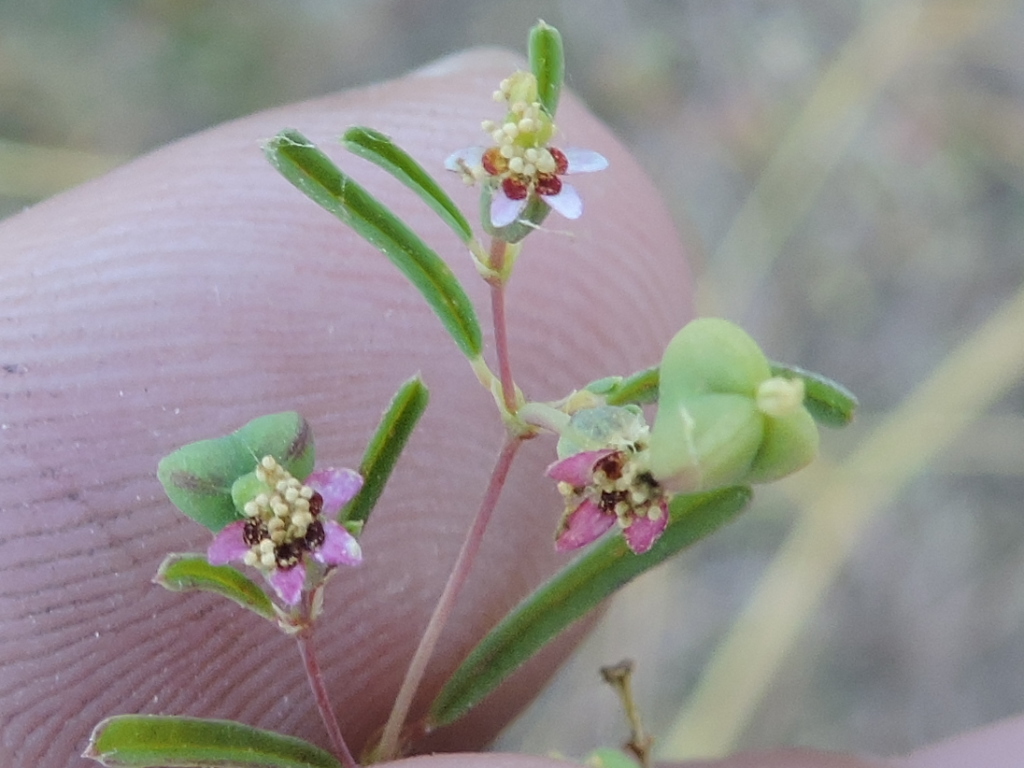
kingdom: Plantae
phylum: Tracheophyta
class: Magnoliopsida
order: Malpighiales
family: Euphorbiaceae
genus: Euphorbia
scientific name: Euphorbia missurica
